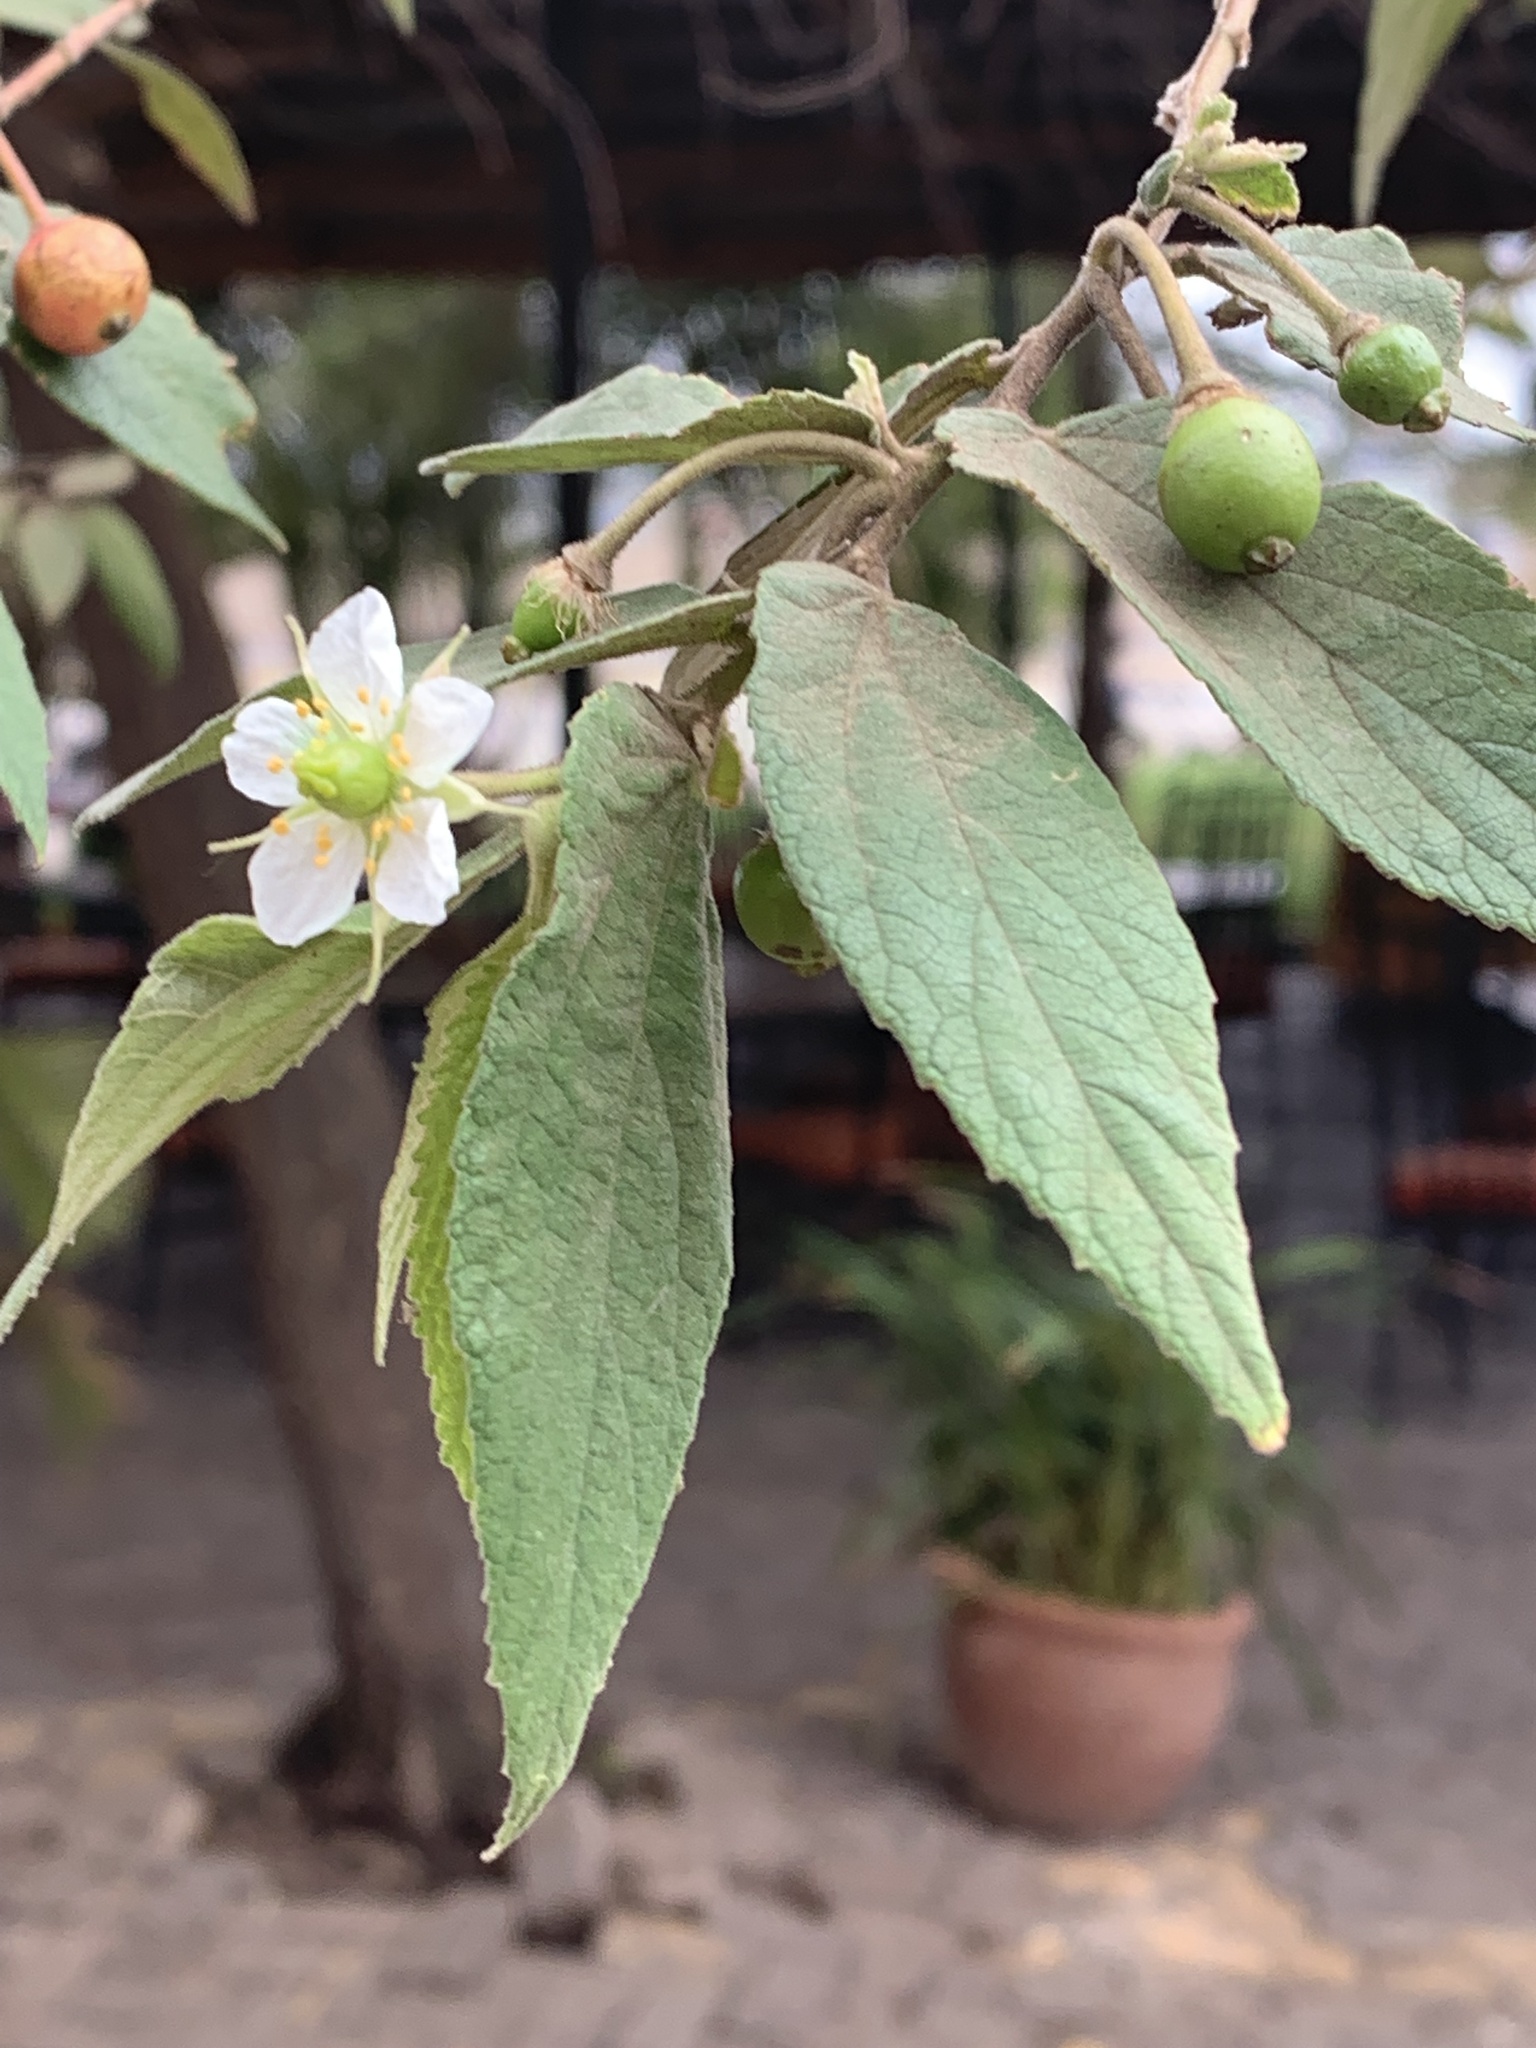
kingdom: Plantae
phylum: Tracheophyta
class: Magnoliopsida
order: Malvales
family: Muntingiaceae
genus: Muntingia
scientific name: Muntingia calabura
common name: Strawberrytree
